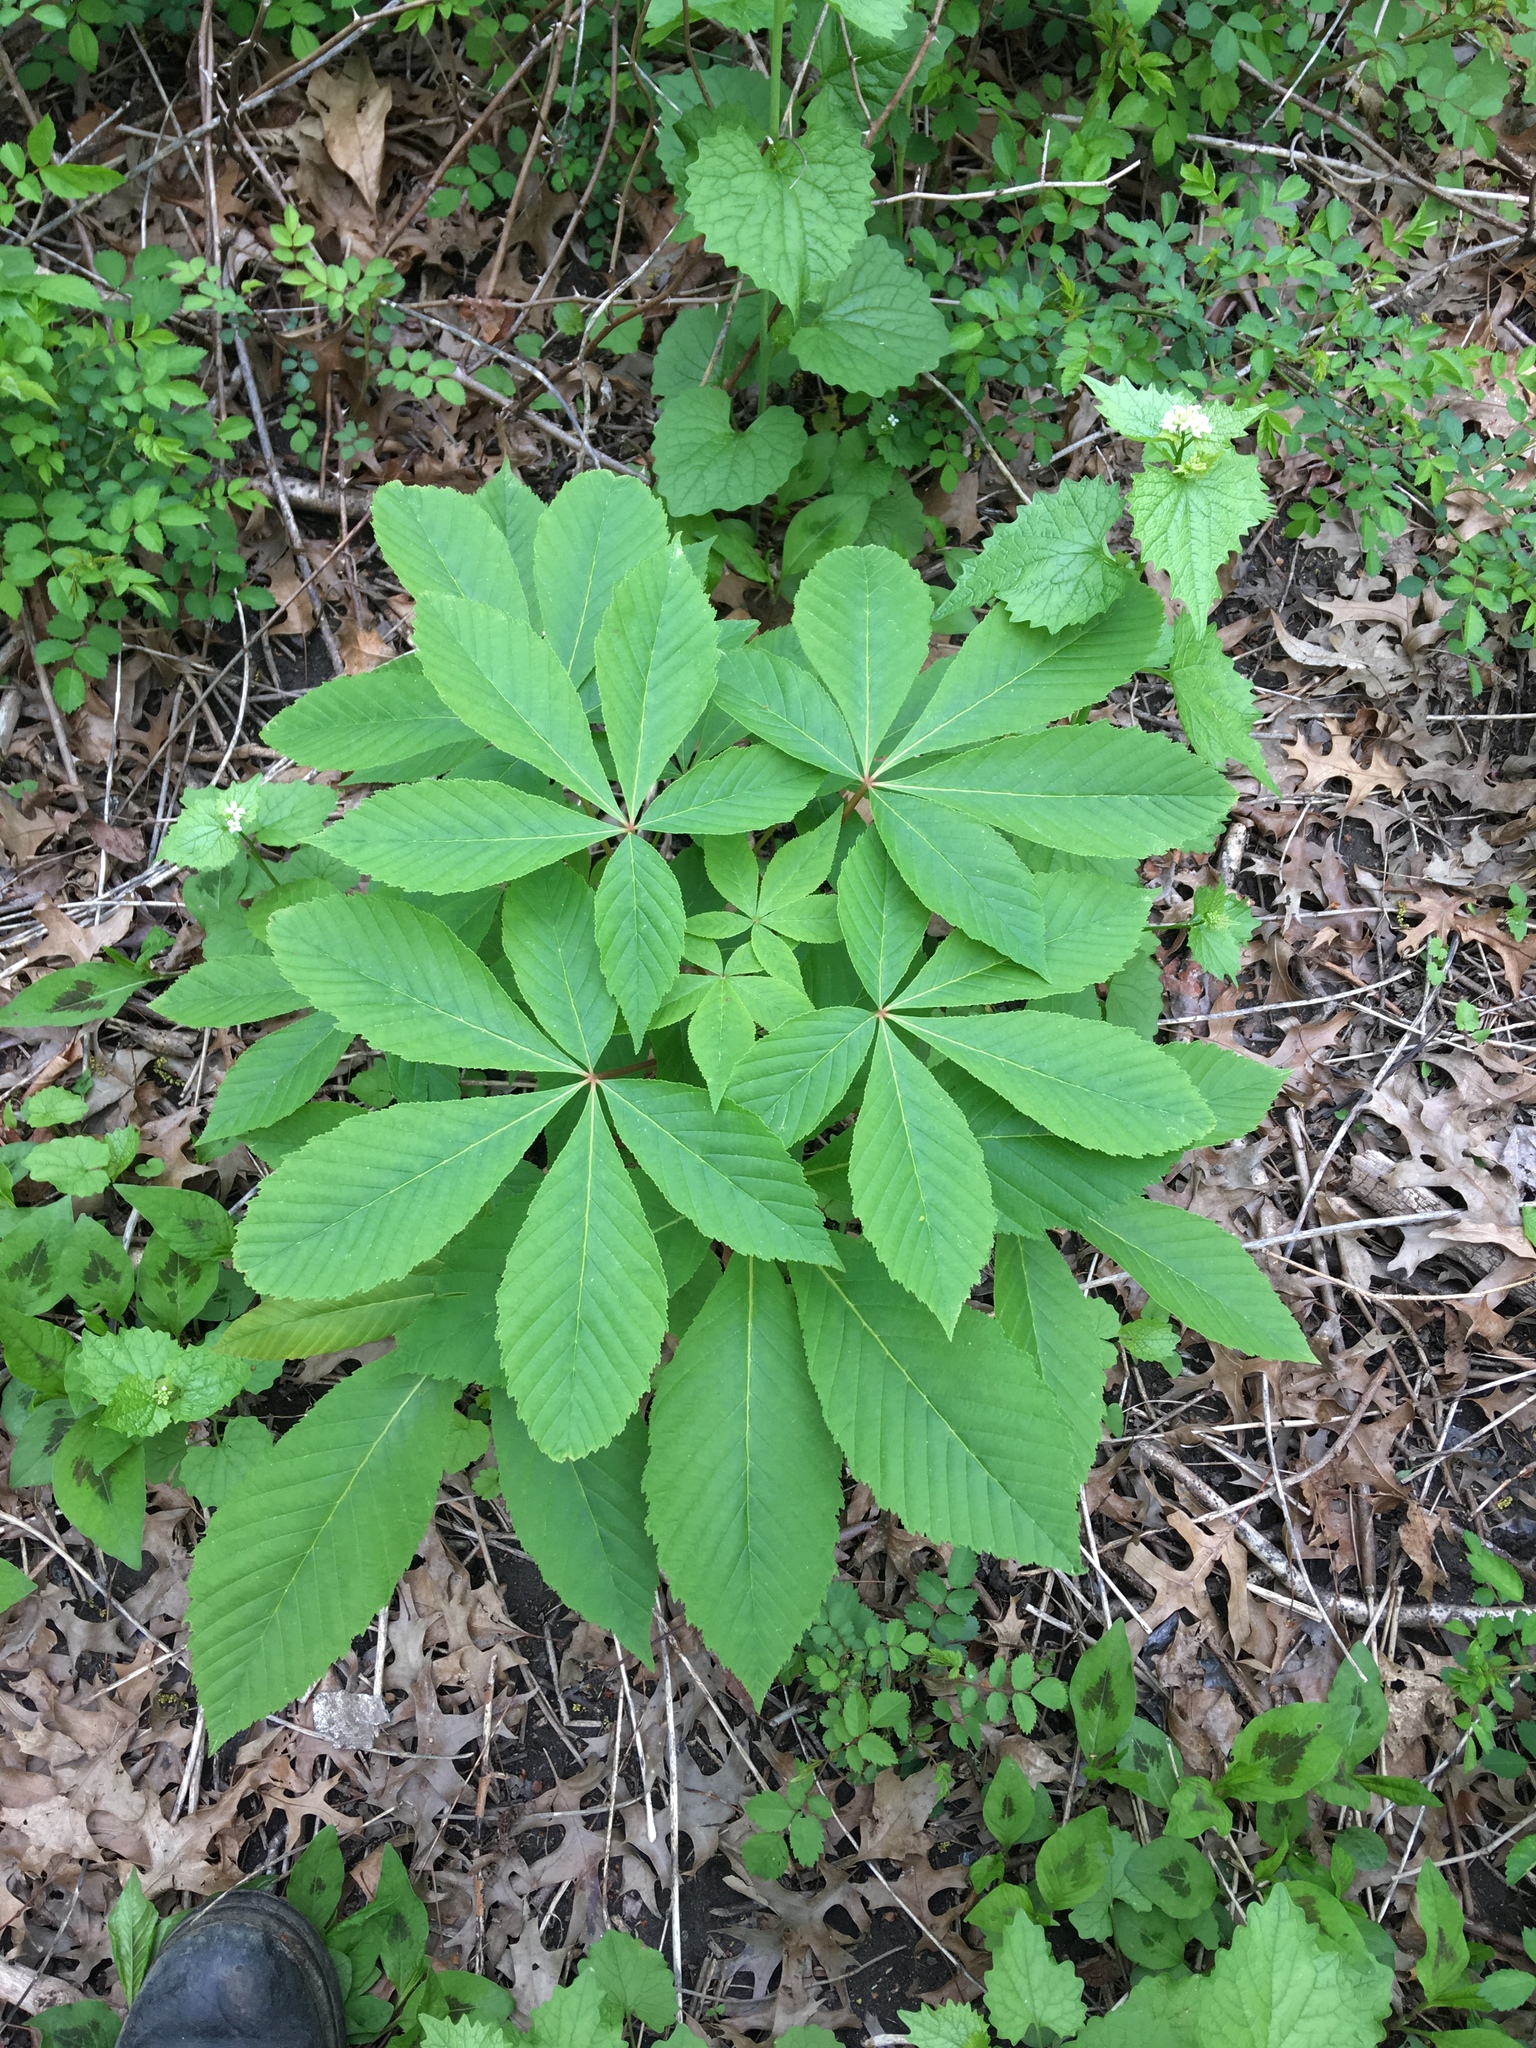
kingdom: Plantae
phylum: Tracheophyta
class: Magnoliopsida
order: Sapindales
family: Sapindaceae
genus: Aesculus
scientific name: Aesculus glabra
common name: Ohio buckeye
